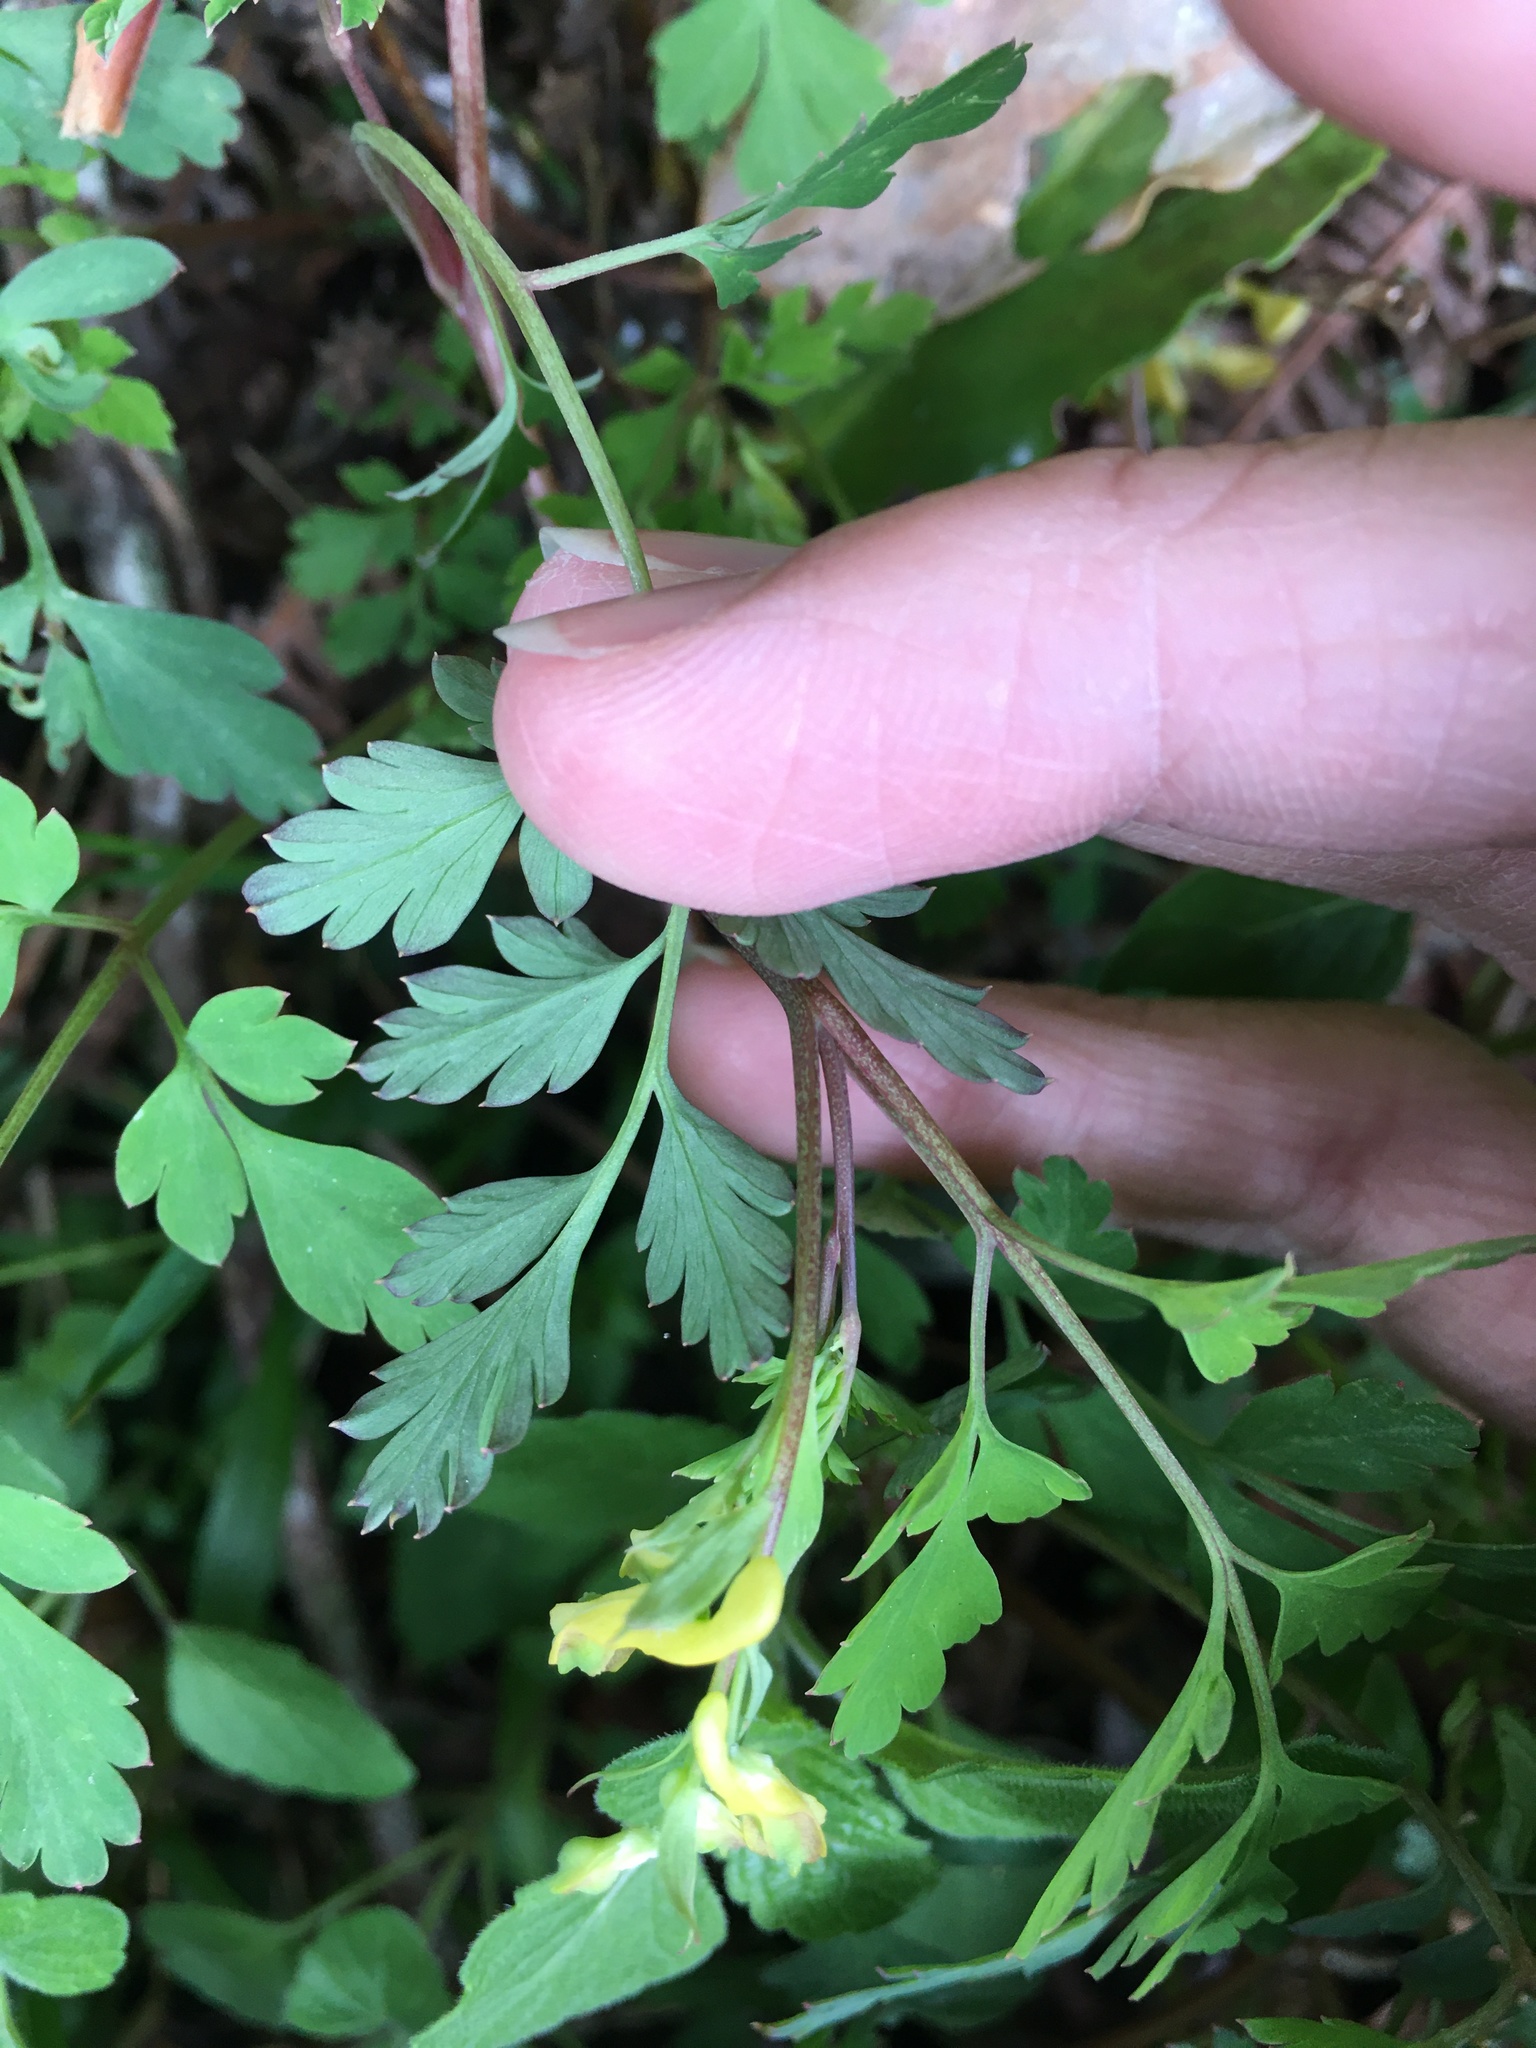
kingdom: Plantae
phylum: Tracheophyta
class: Magnoliopsida
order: Ranunculales
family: Papaveraceae
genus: Corydalis
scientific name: Corydalis pallida
